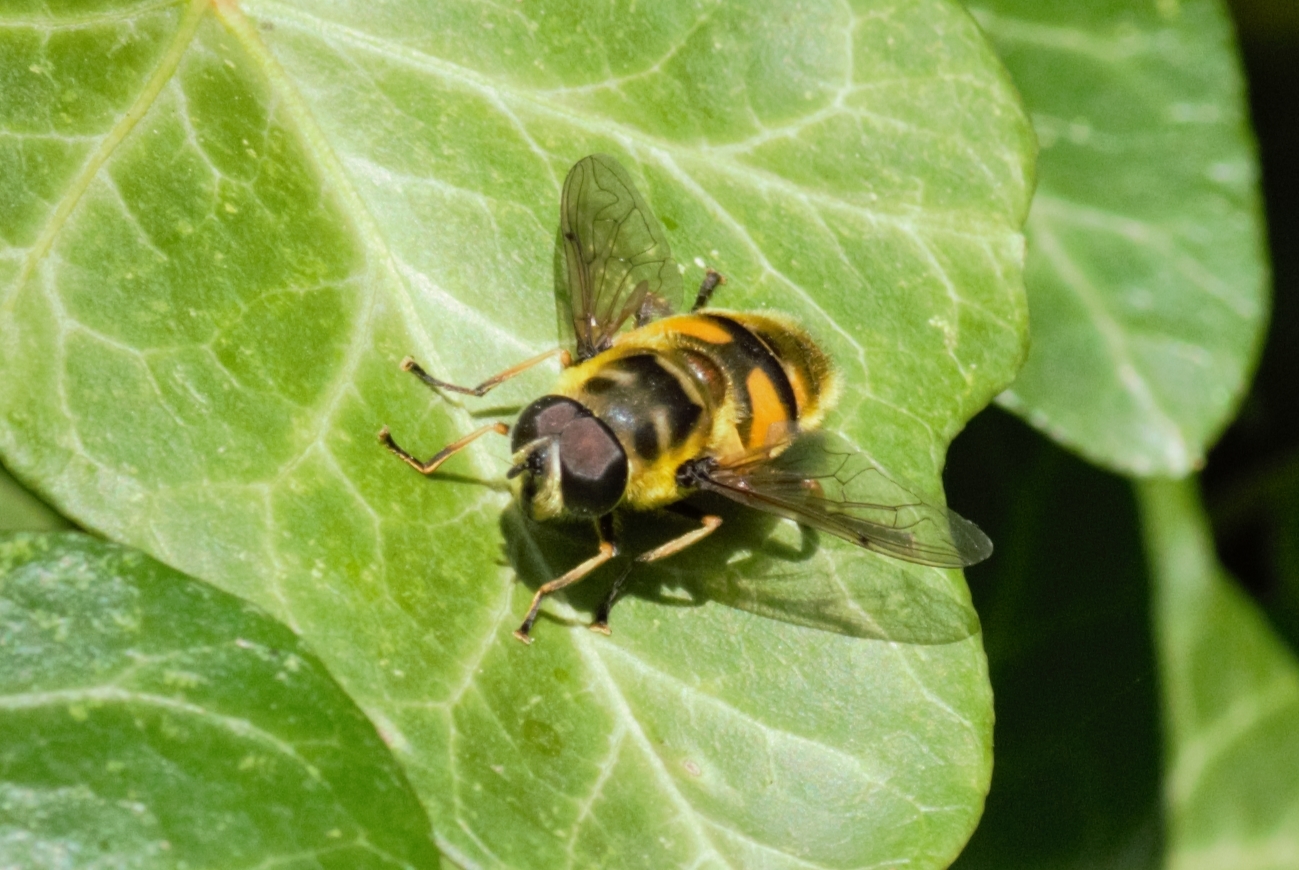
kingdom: Animalia
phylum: Arthropoda
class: Insecta
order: Diptera
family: Syrphidae
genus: Myathropa
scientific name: Myathropa florea
